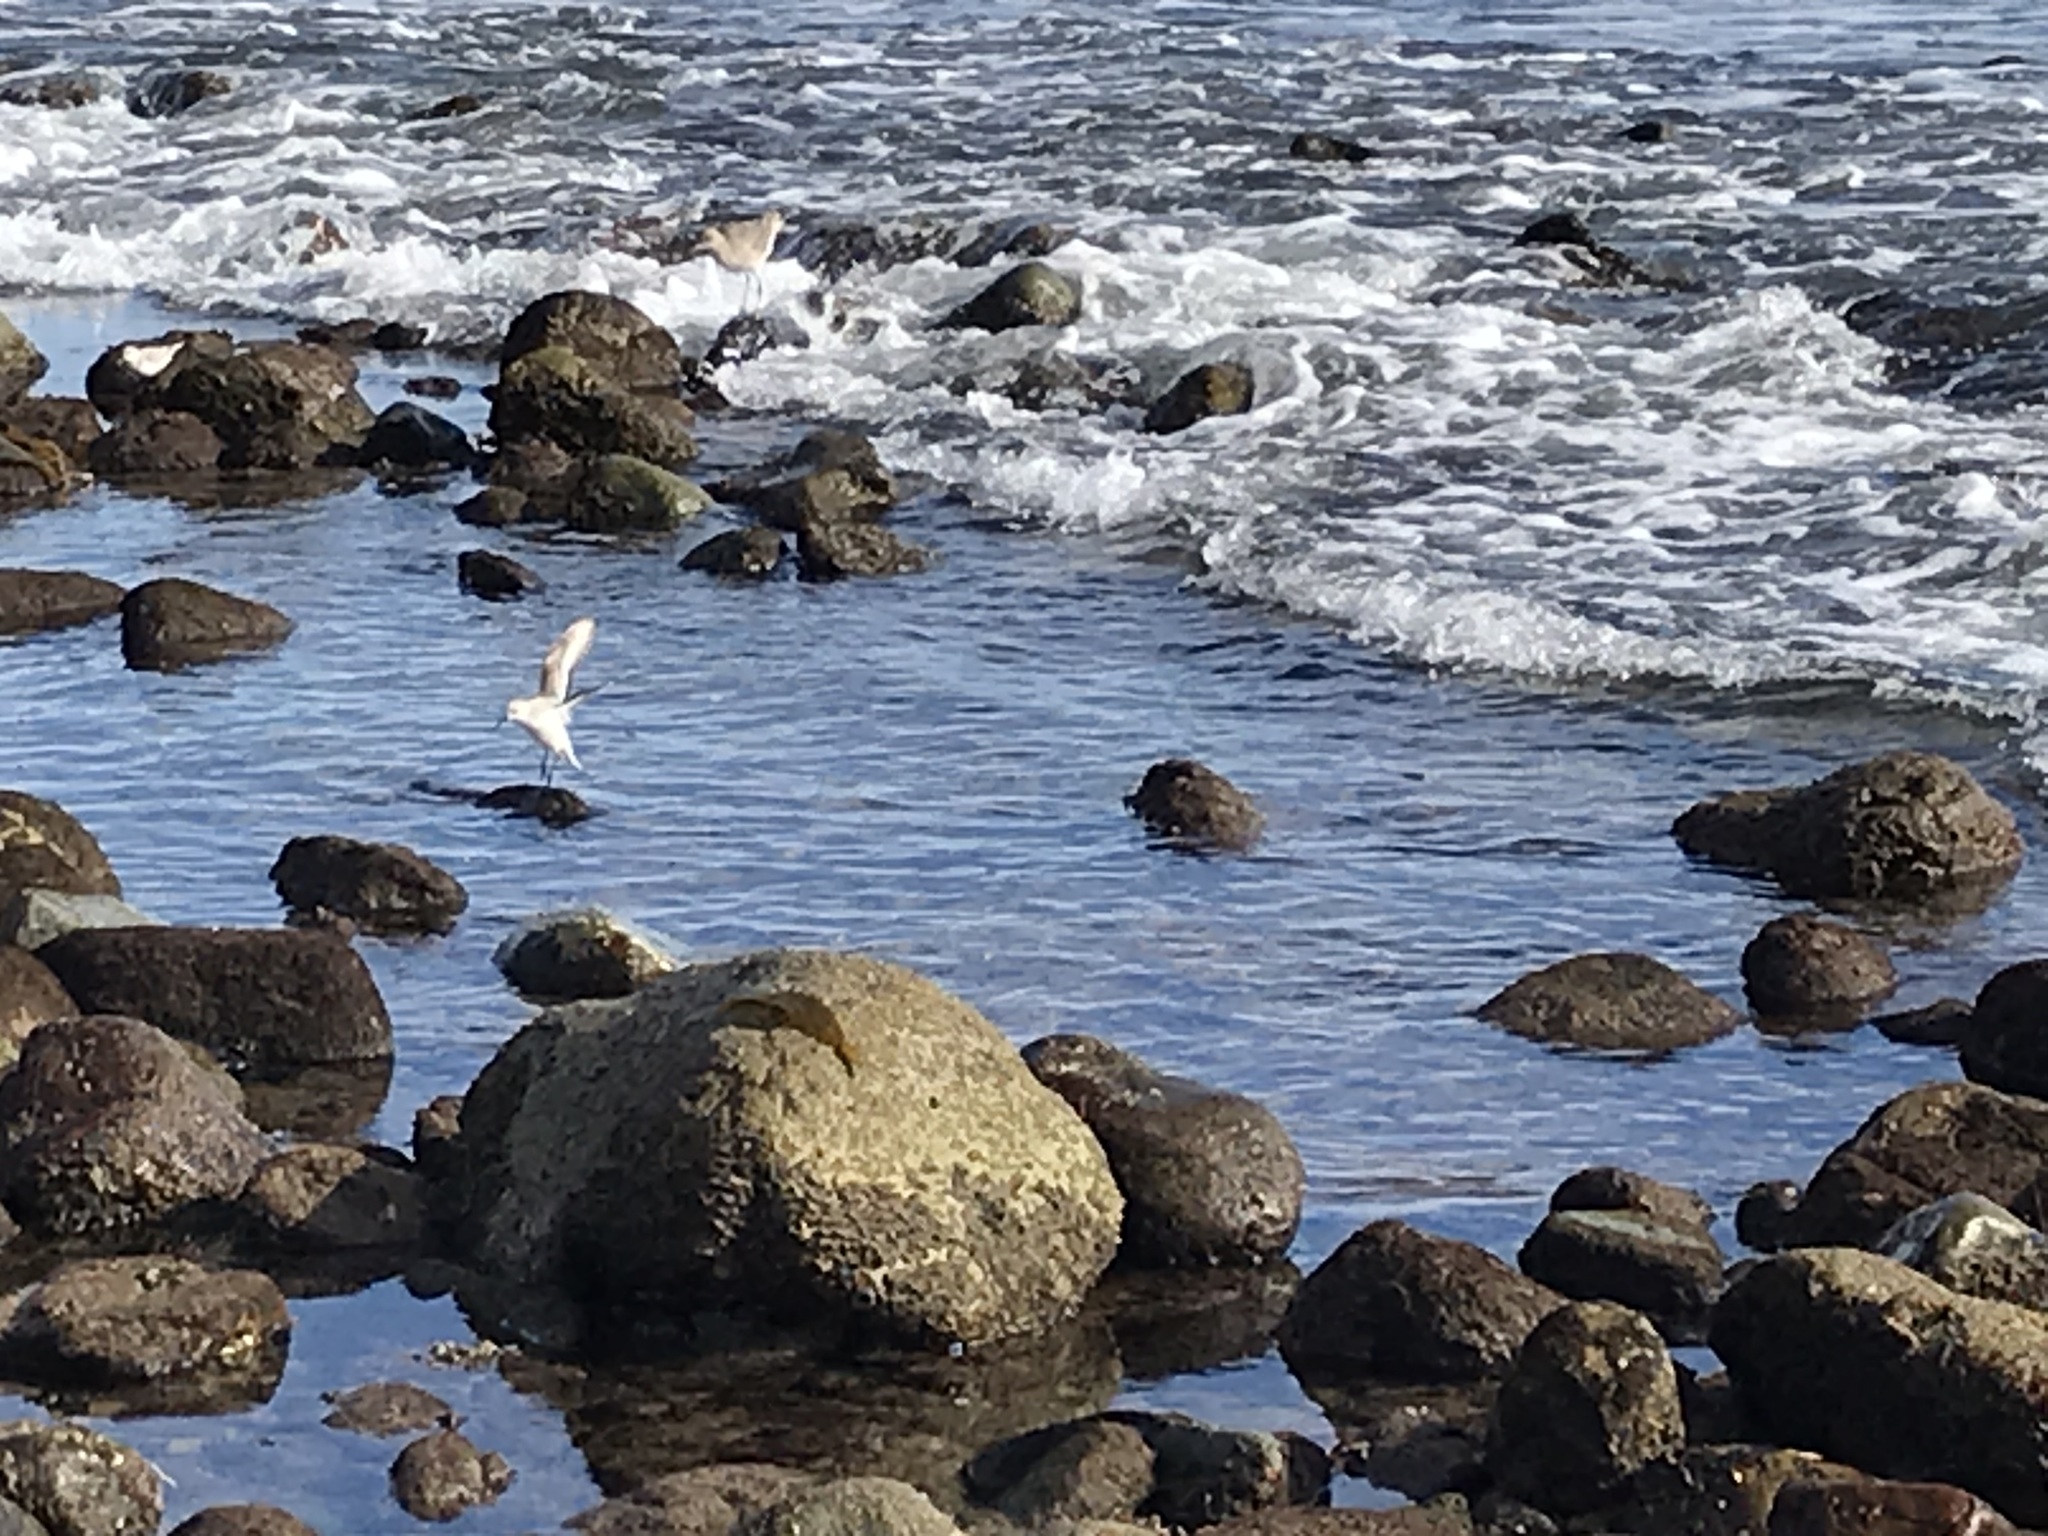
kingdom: Animalia
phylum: Chordata
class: Aves
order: Charadriiformes
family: Scolopacidae
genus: Calidris
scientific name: Calidris alba
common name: Sanderling
